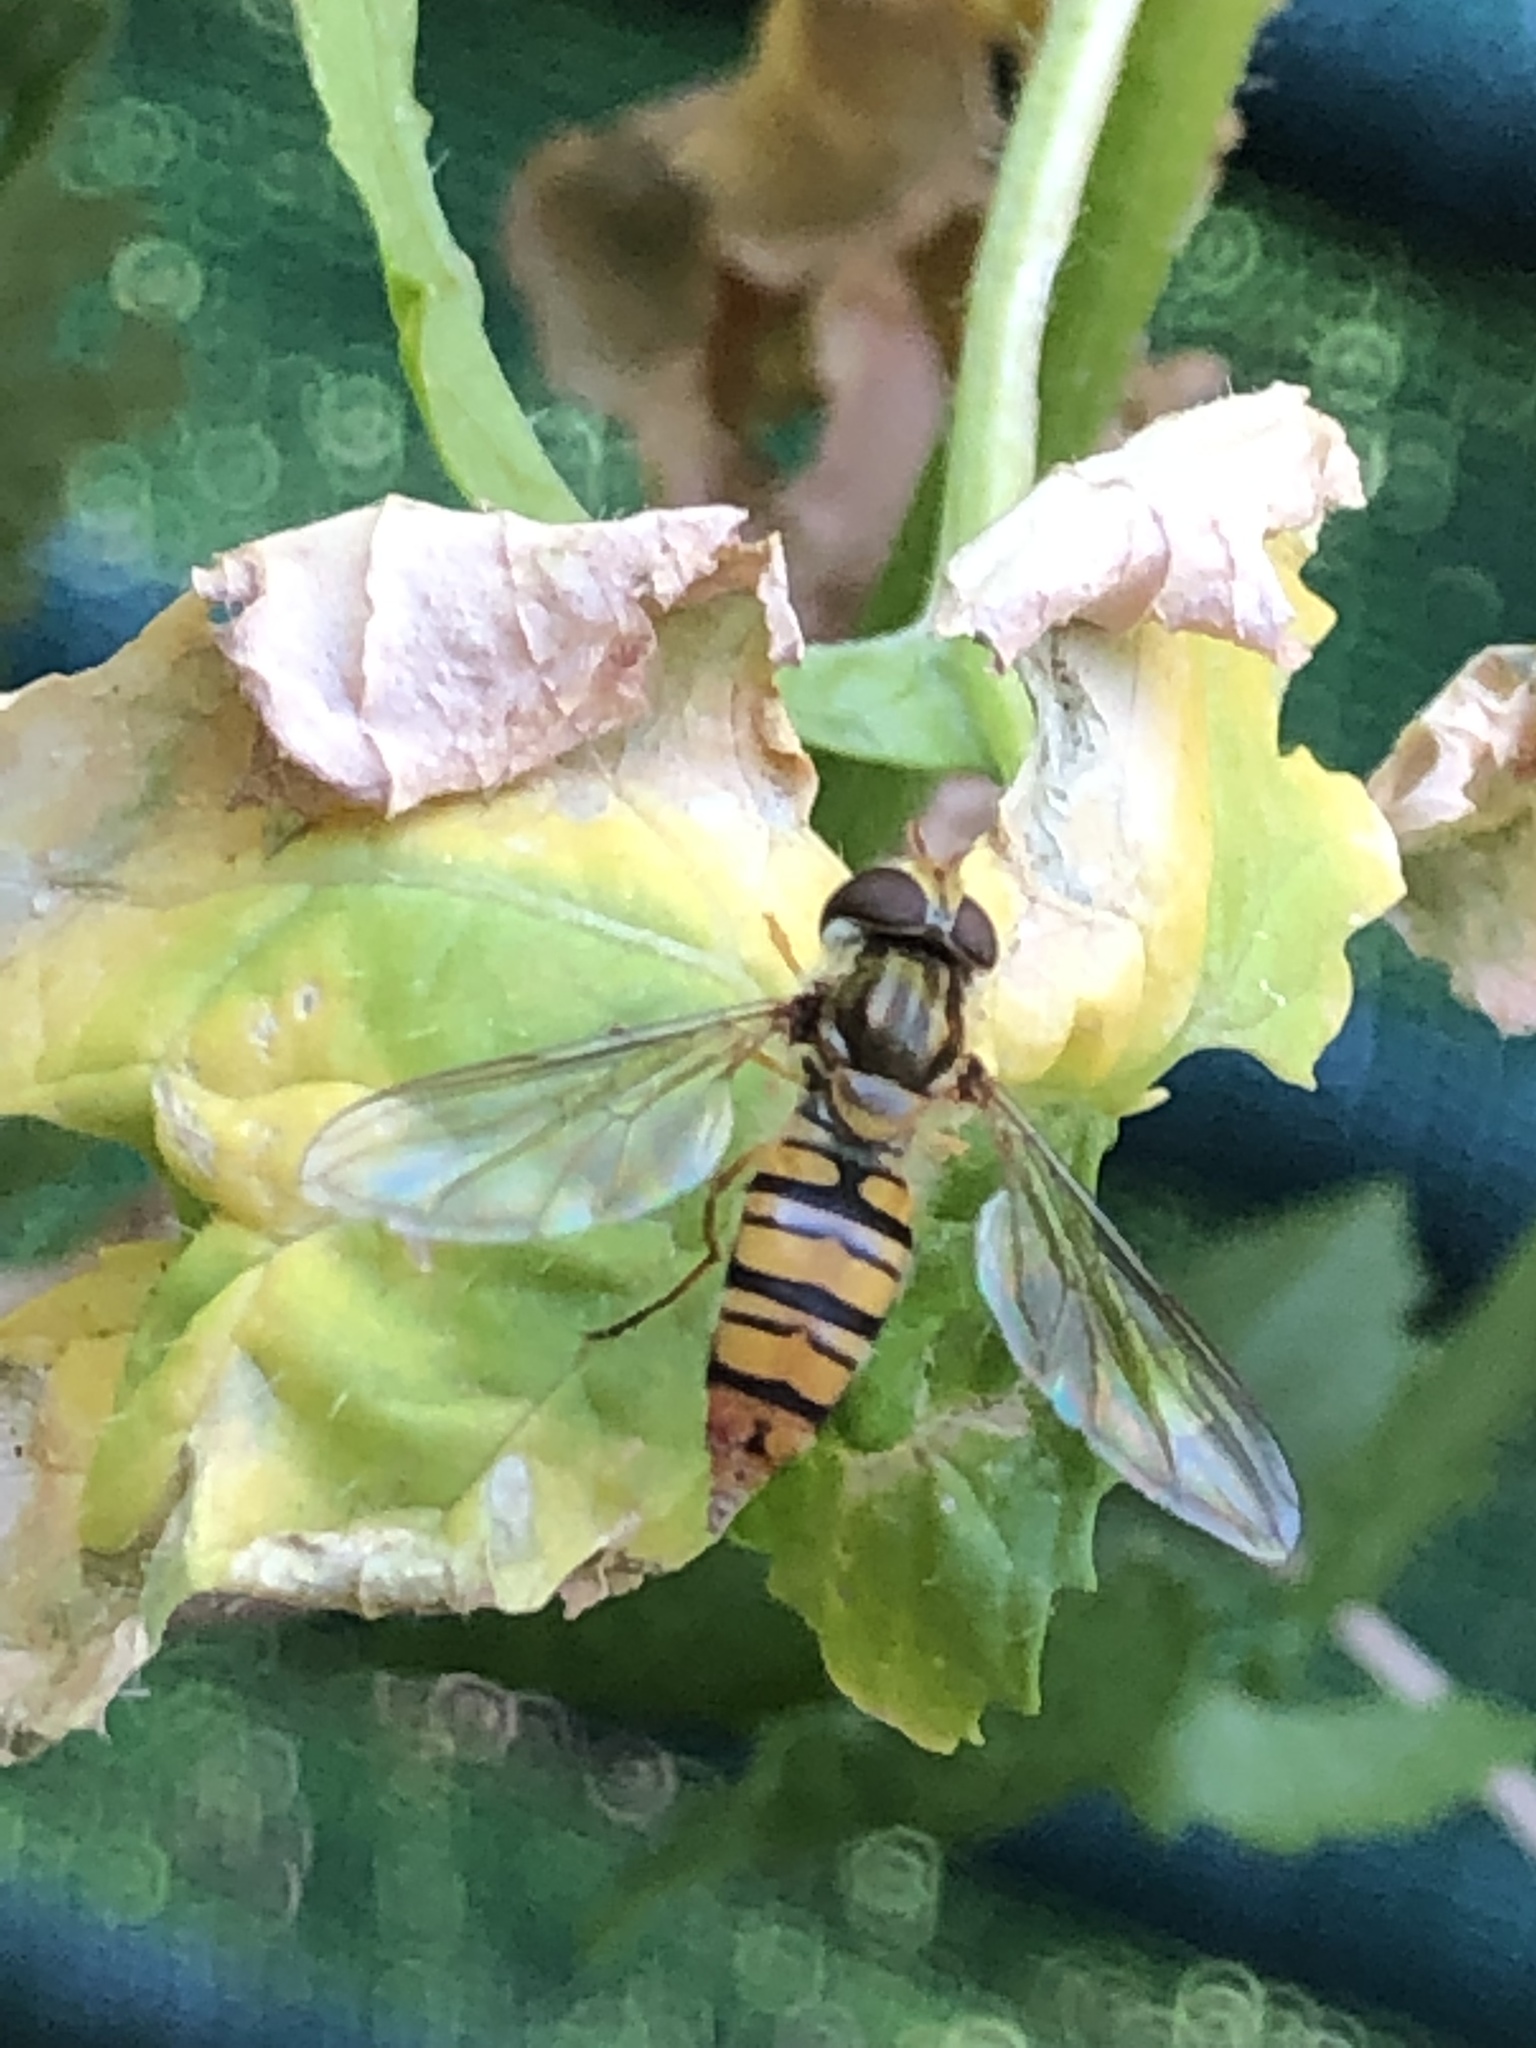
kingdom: Animalia
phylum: Arthropoda
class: Insecta
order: Diptera
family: Syrphidae
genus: Episyrphus
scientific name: Episyrphus balteatus
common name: Marmalade hoverfly
